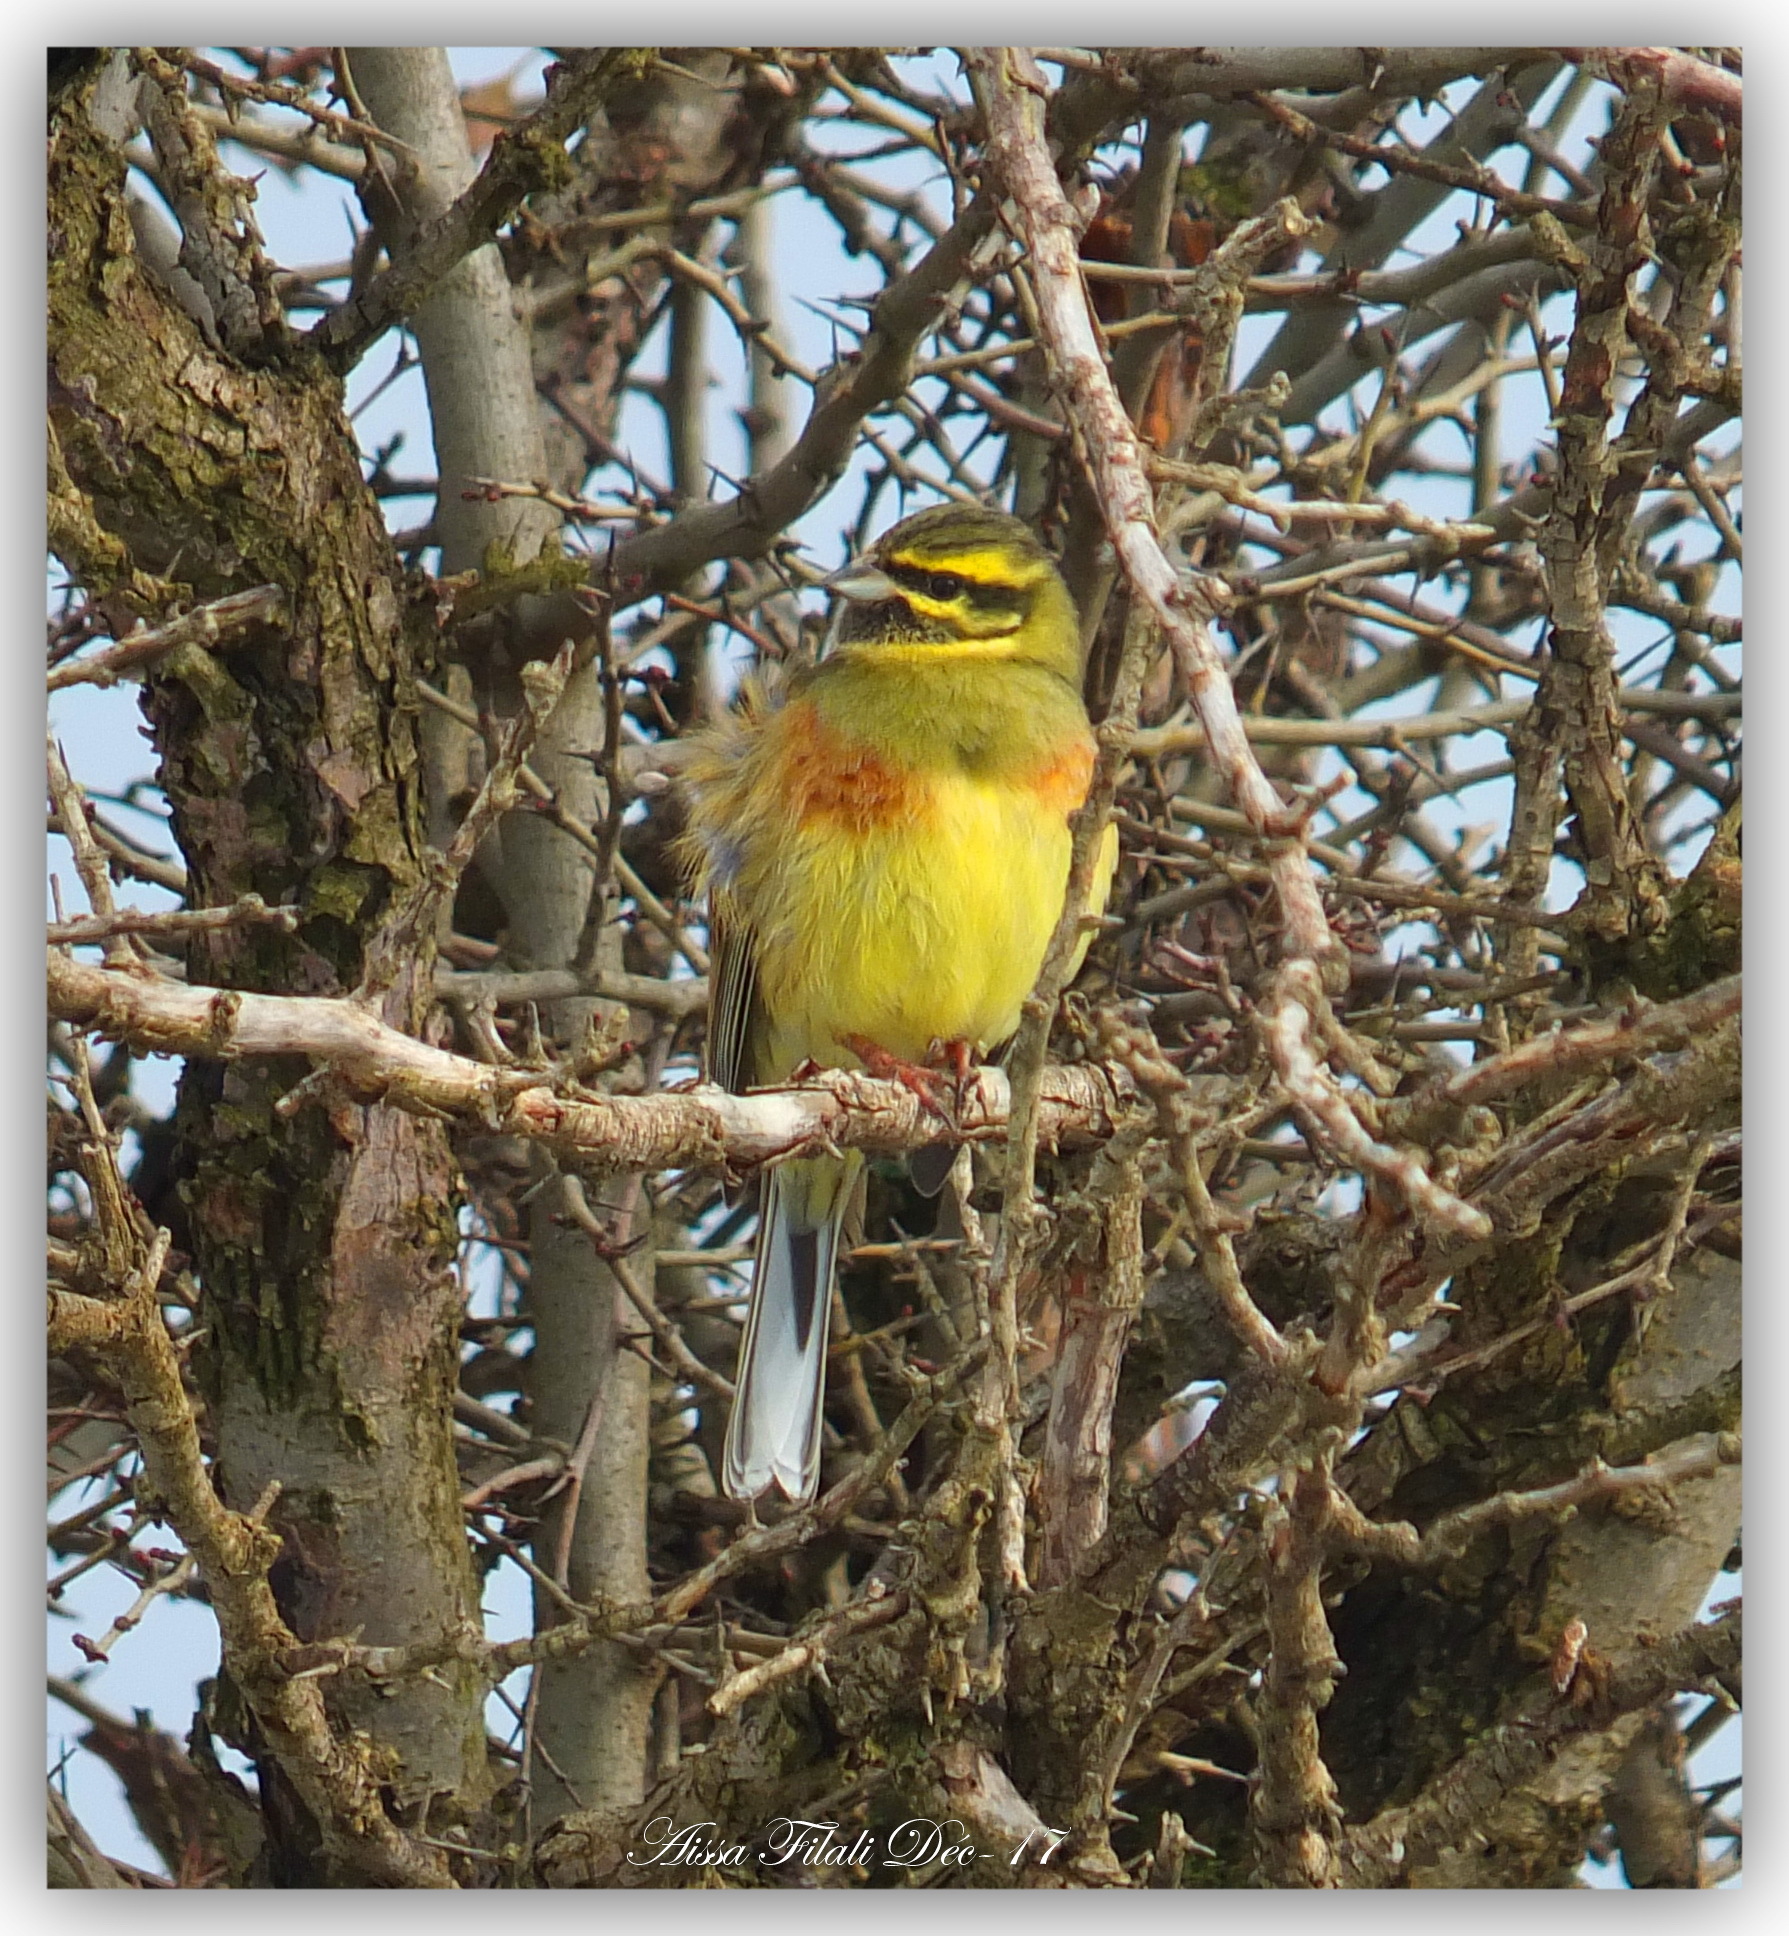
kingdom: Animalia
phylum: Chordata
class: Aves
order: Passeriformes
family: Emberizidae
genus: Emberiza
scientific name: Emberiza cirlus
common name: Cirl bunting
